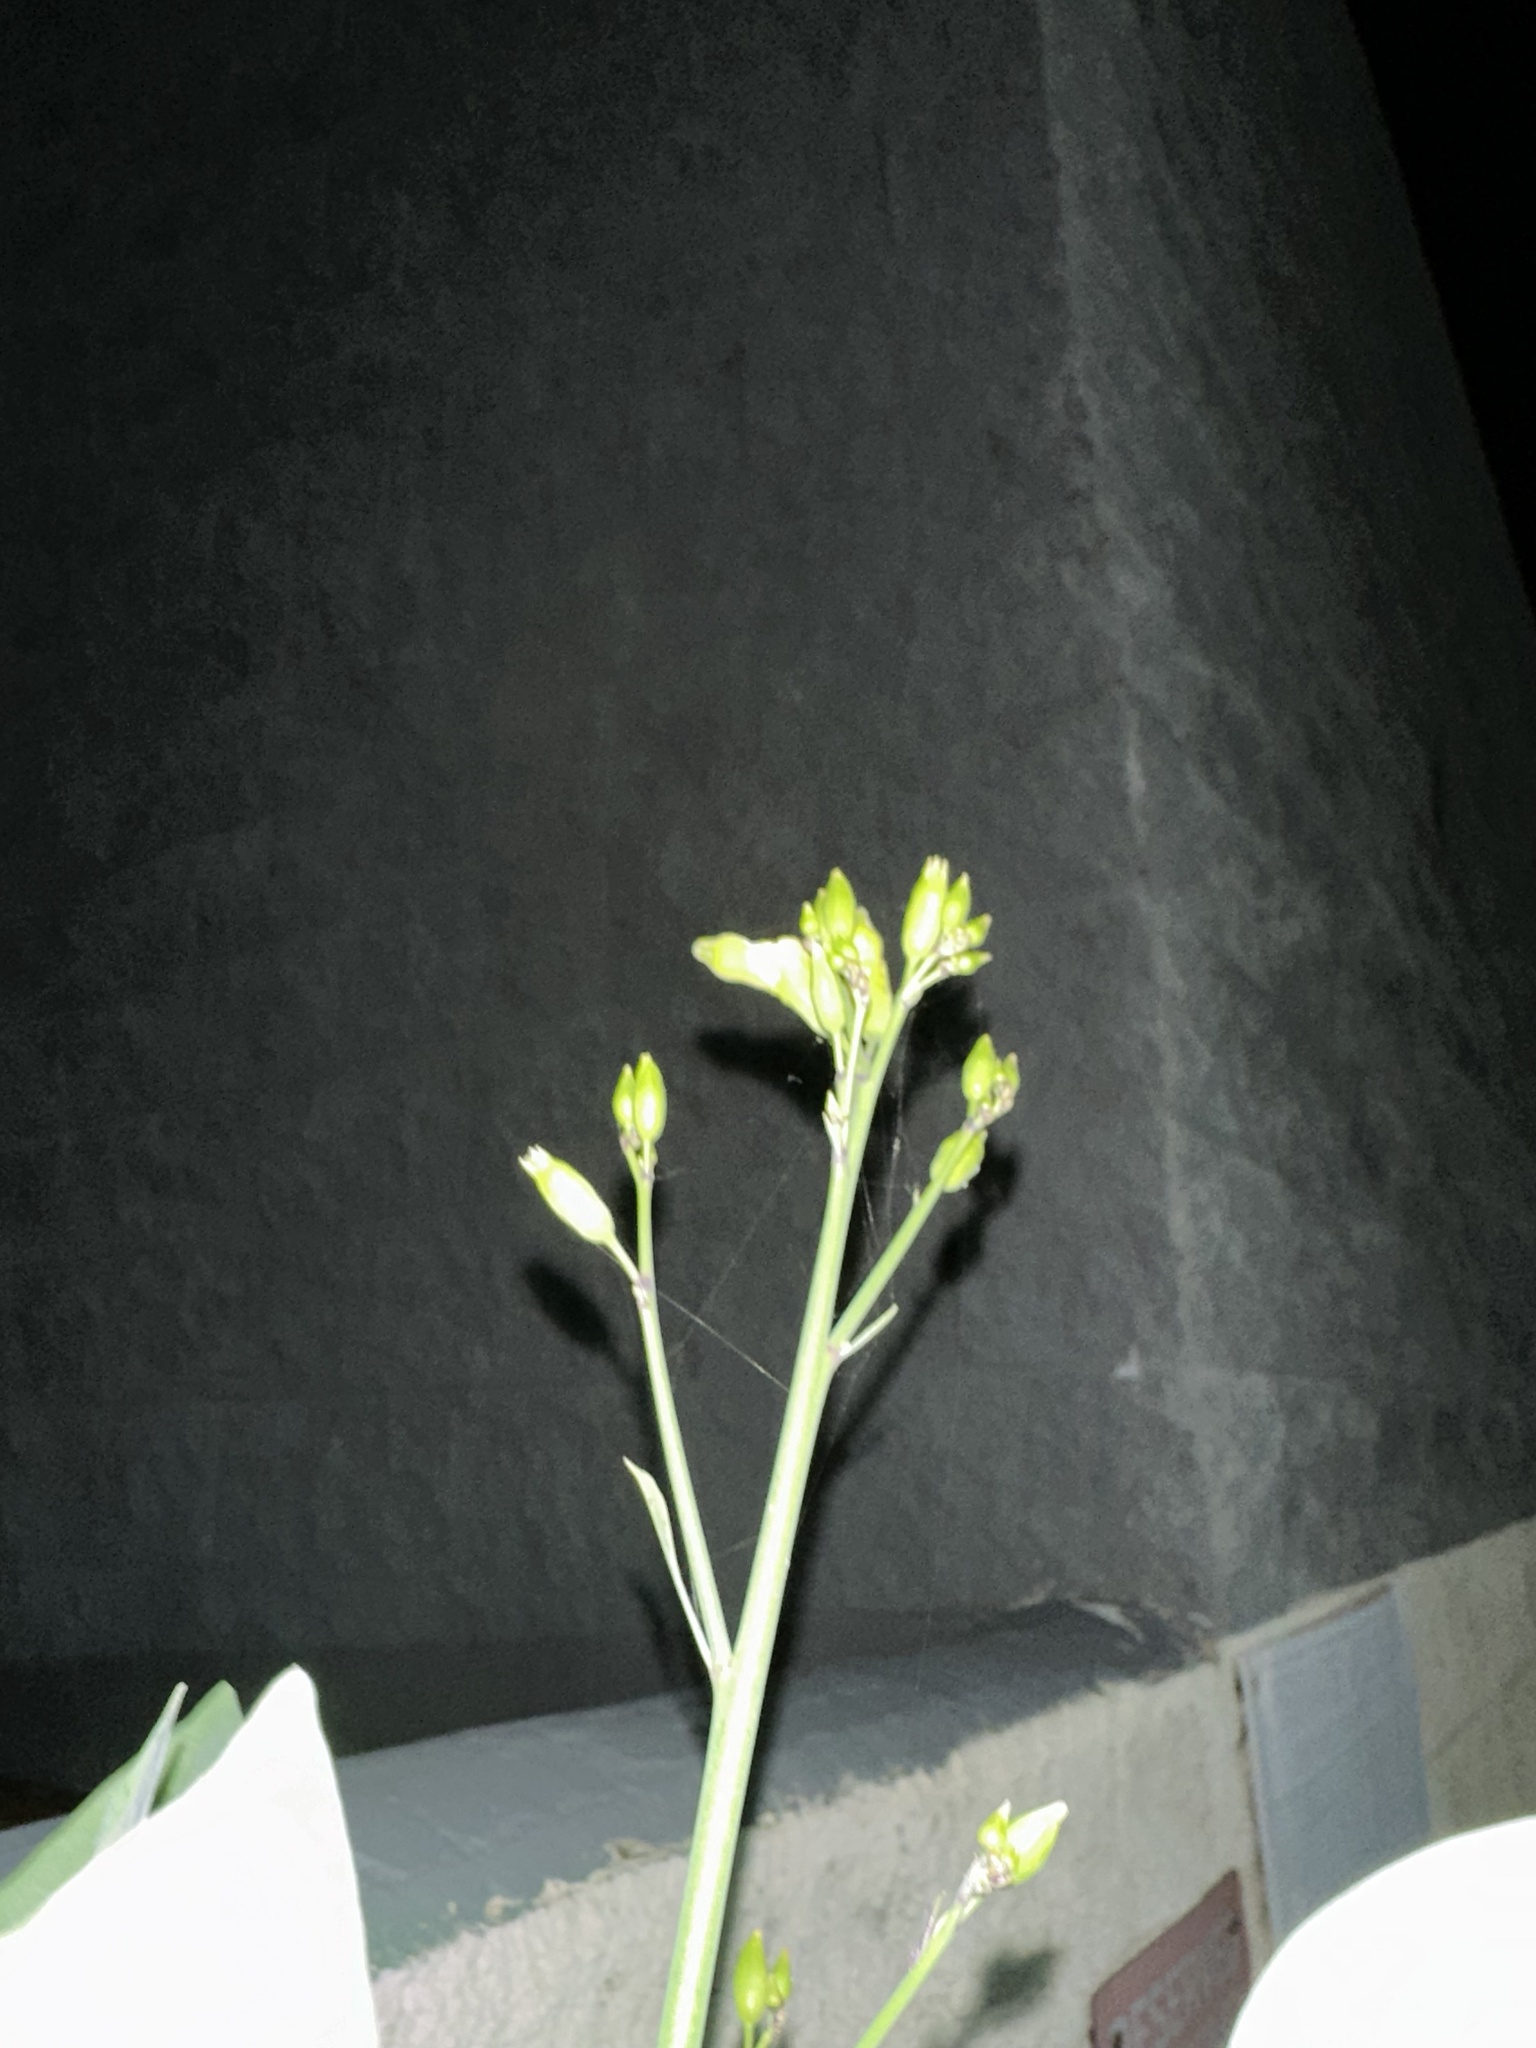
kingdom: Plantae
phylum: Tracheophyta
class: Magnoliopsida
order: Solanales
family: Solanaceae
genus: Nicotiana
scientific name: Nicotiana glauca
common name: Tree tobacco
